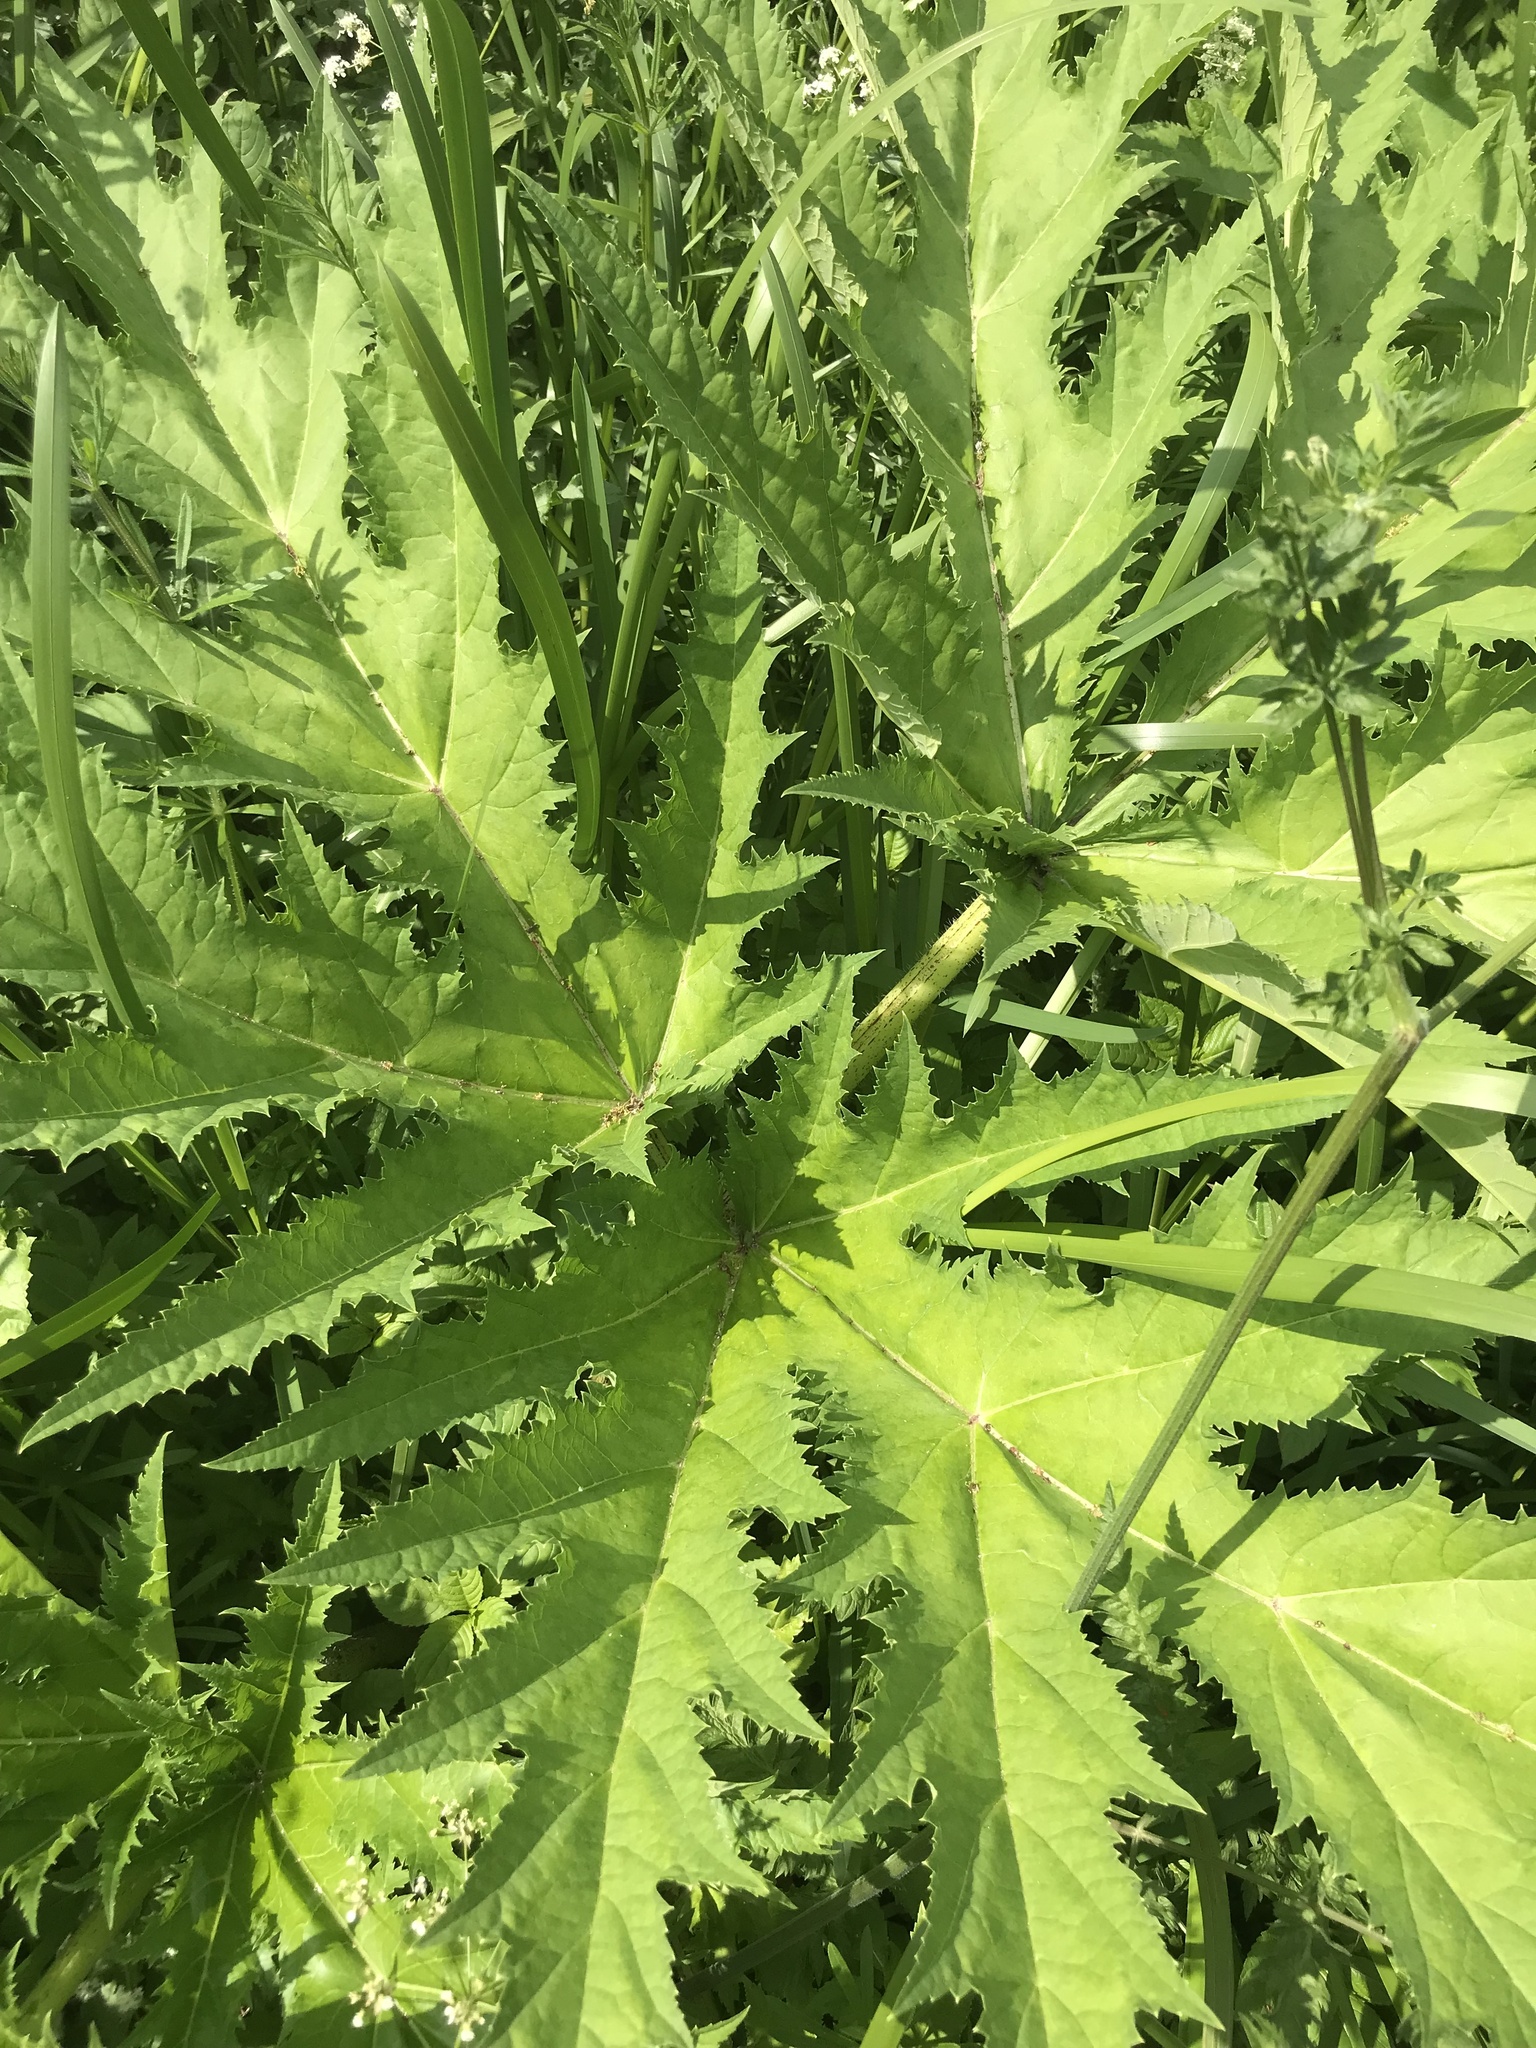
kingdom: Plantae
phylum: Tracheophyta
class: Magnoliopsida
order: Apiales
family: Apiaceae
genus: Heracleum
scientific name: Heracleum mantegazzianum
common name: Giant hogweed
